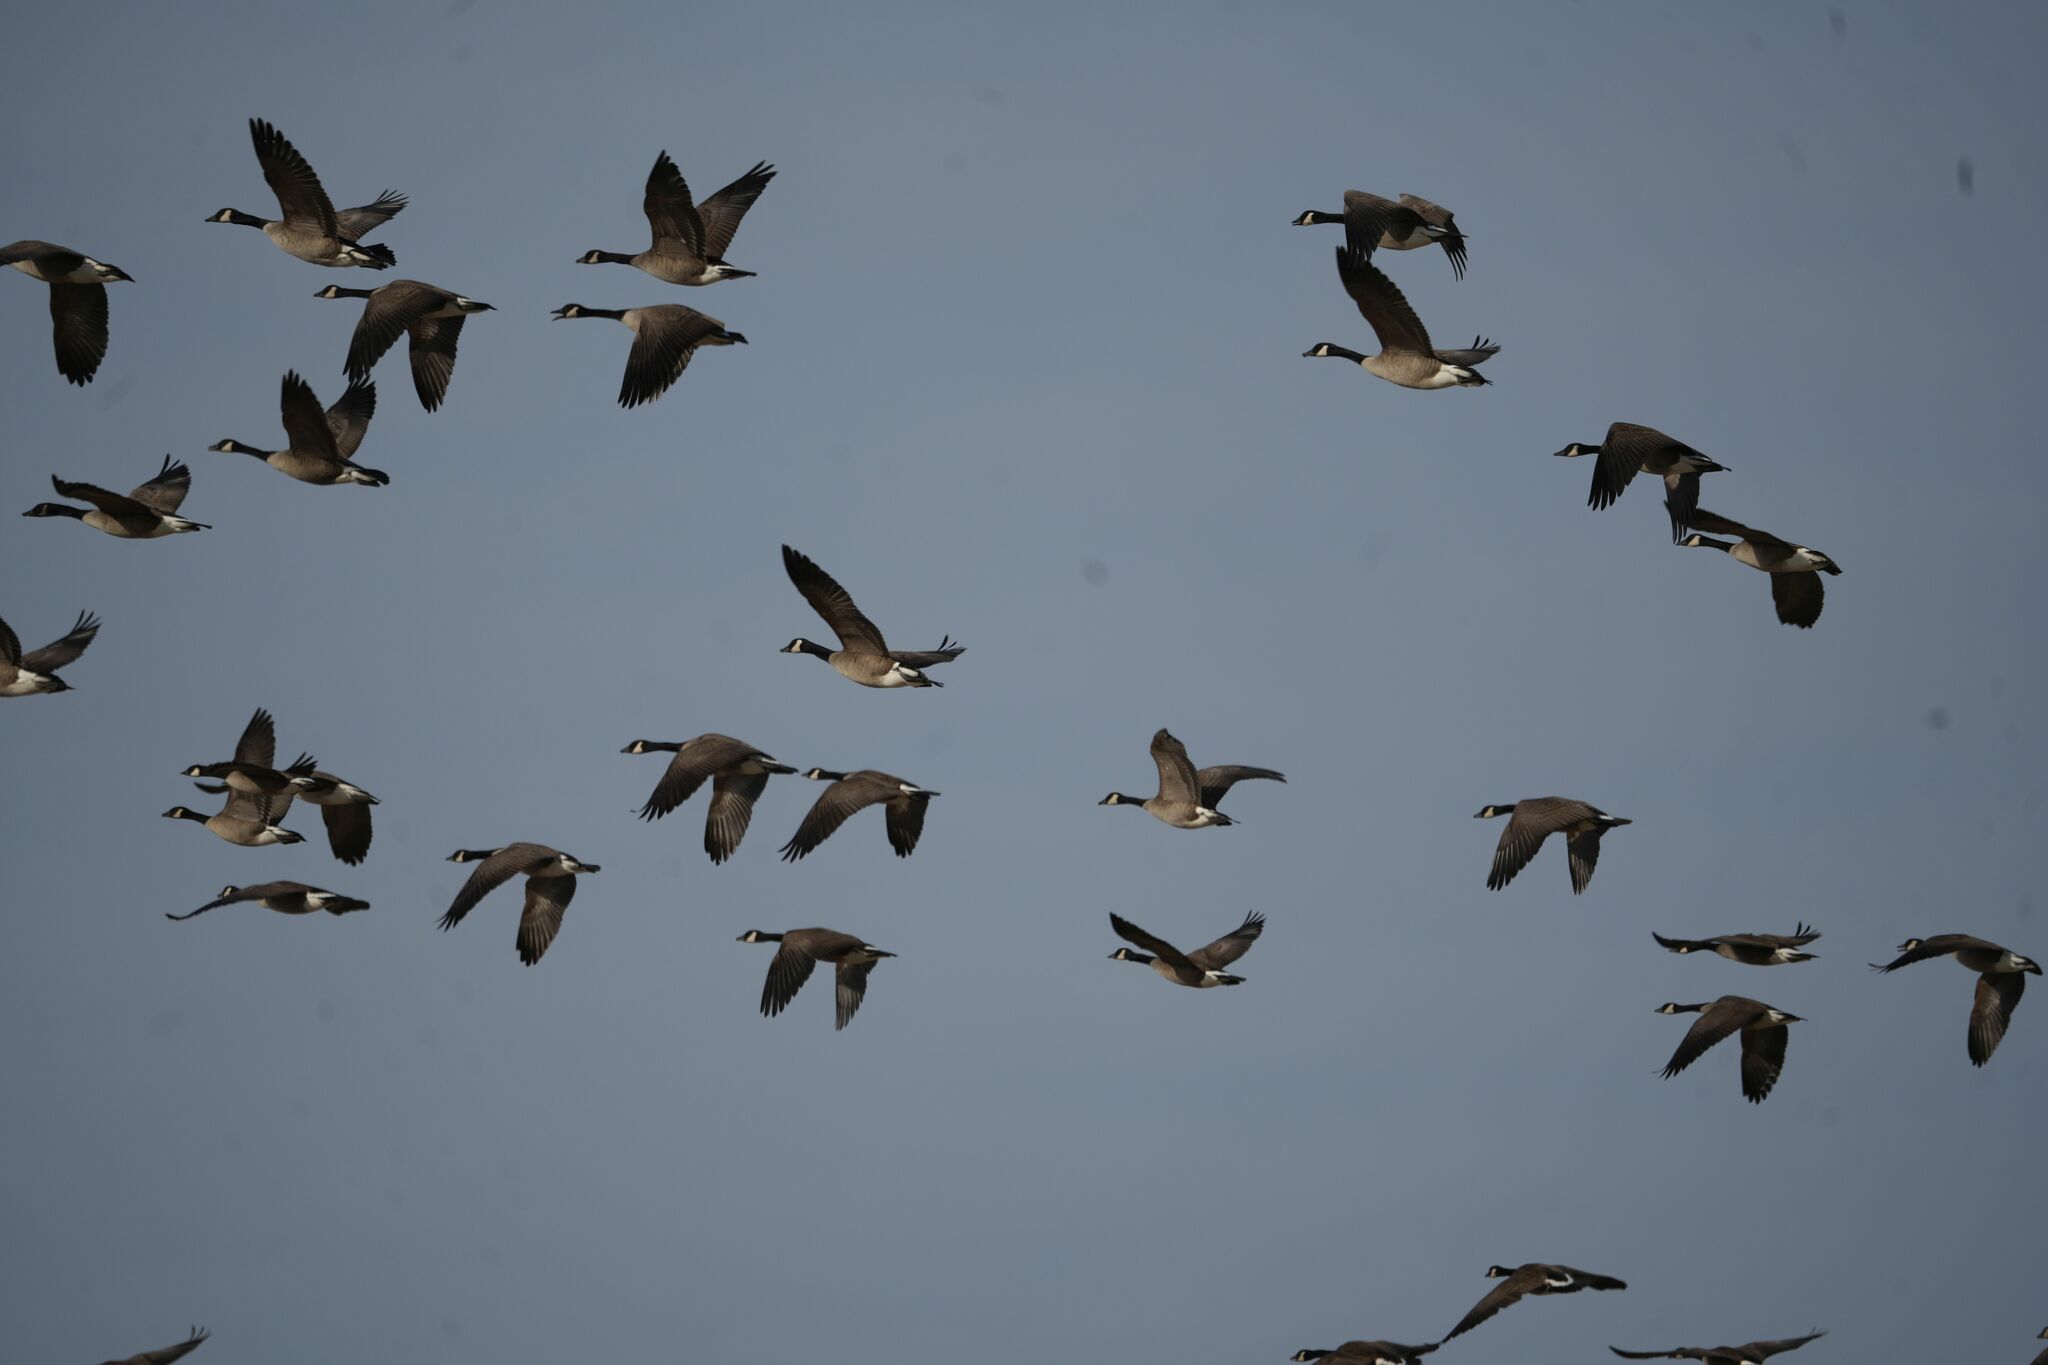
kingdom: Animalia
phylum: Chordata
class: Aves
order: Anseriformes
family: Anatidae
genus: Branta
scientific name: Branta canadensis
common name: Canada goose
